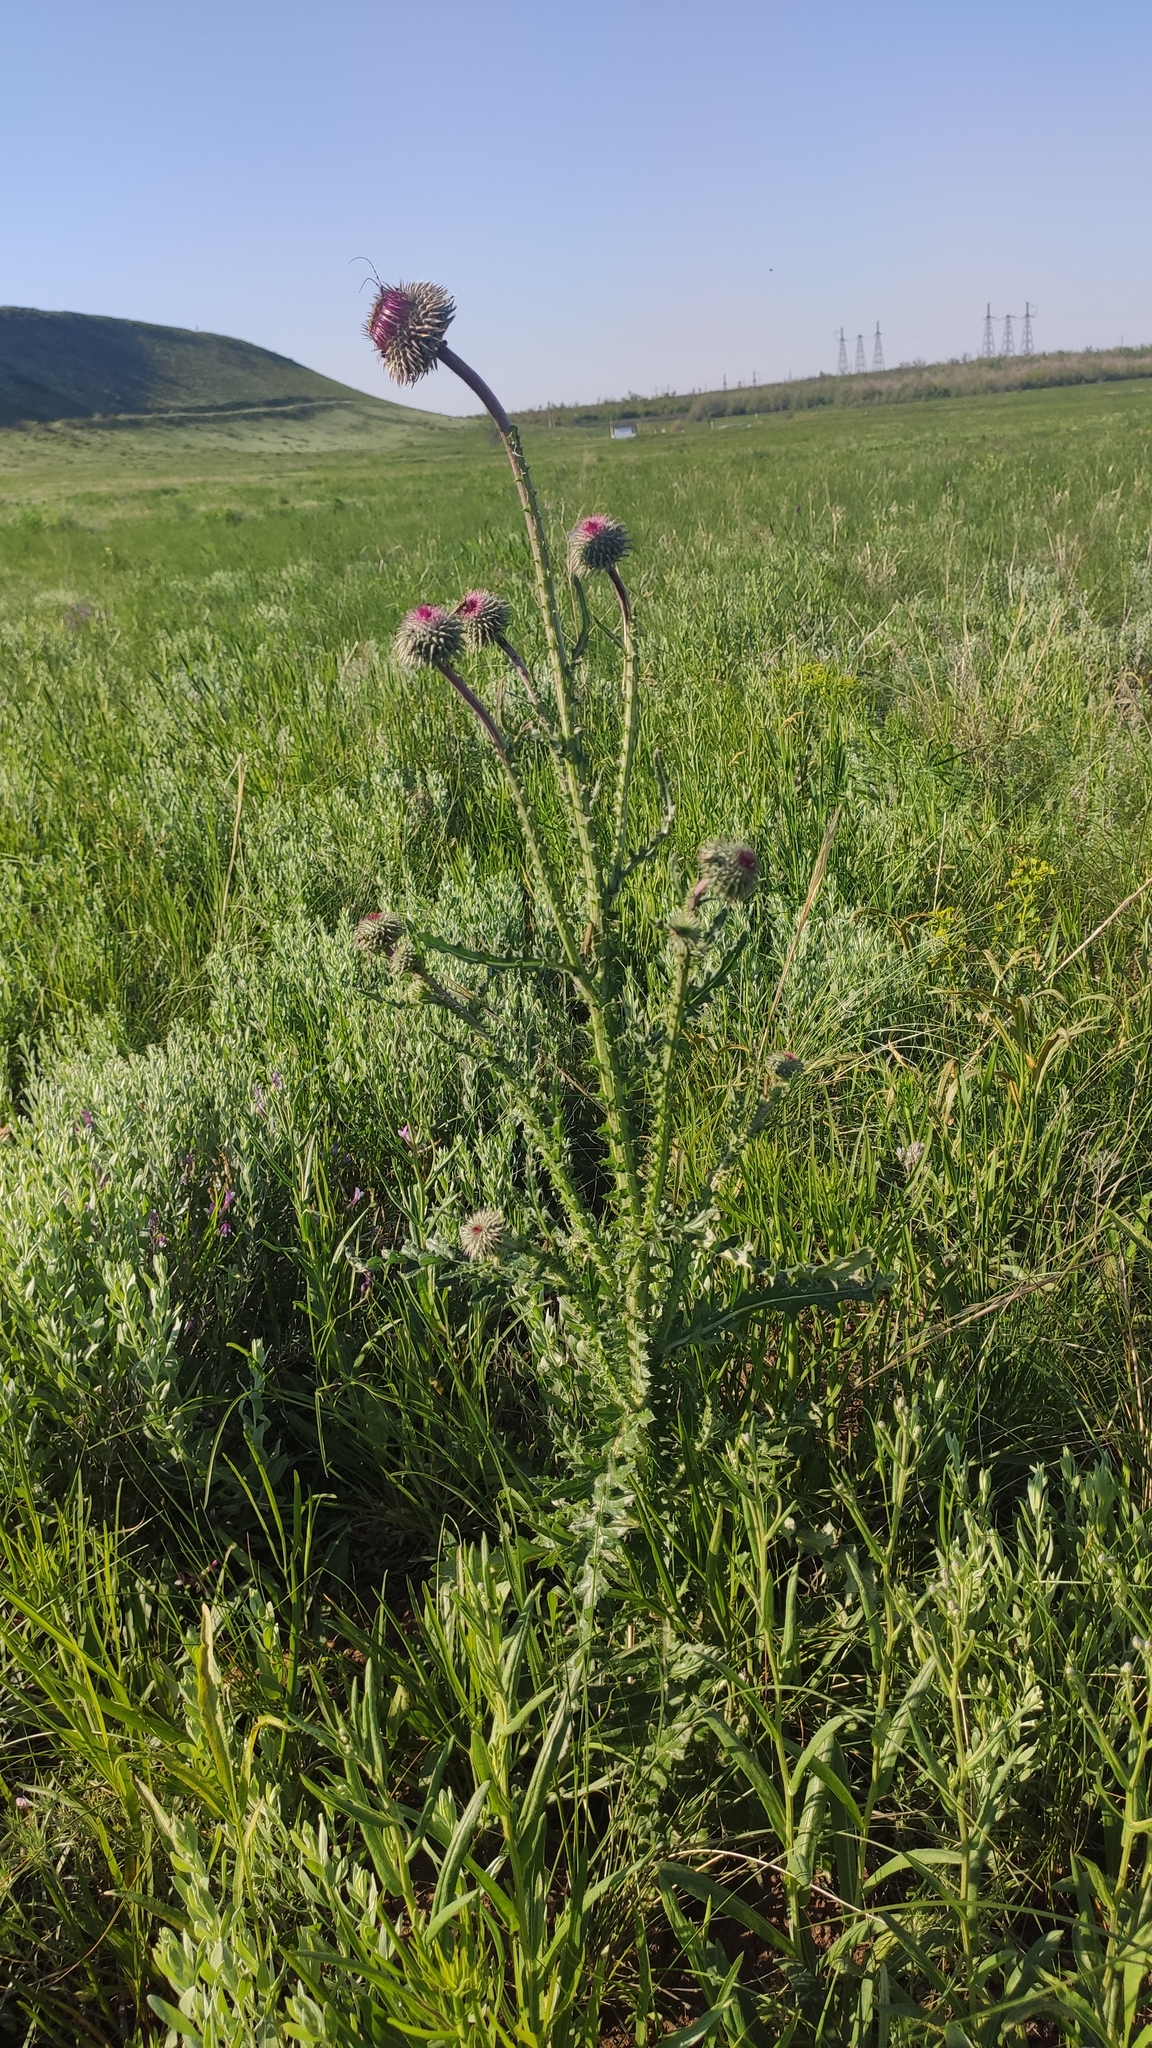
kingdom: Plantae
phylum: Tracheophyta
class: Magnoliopsida
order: Asterales
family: Asteraceae
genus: Carduus
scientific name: Carduus uncinatus
